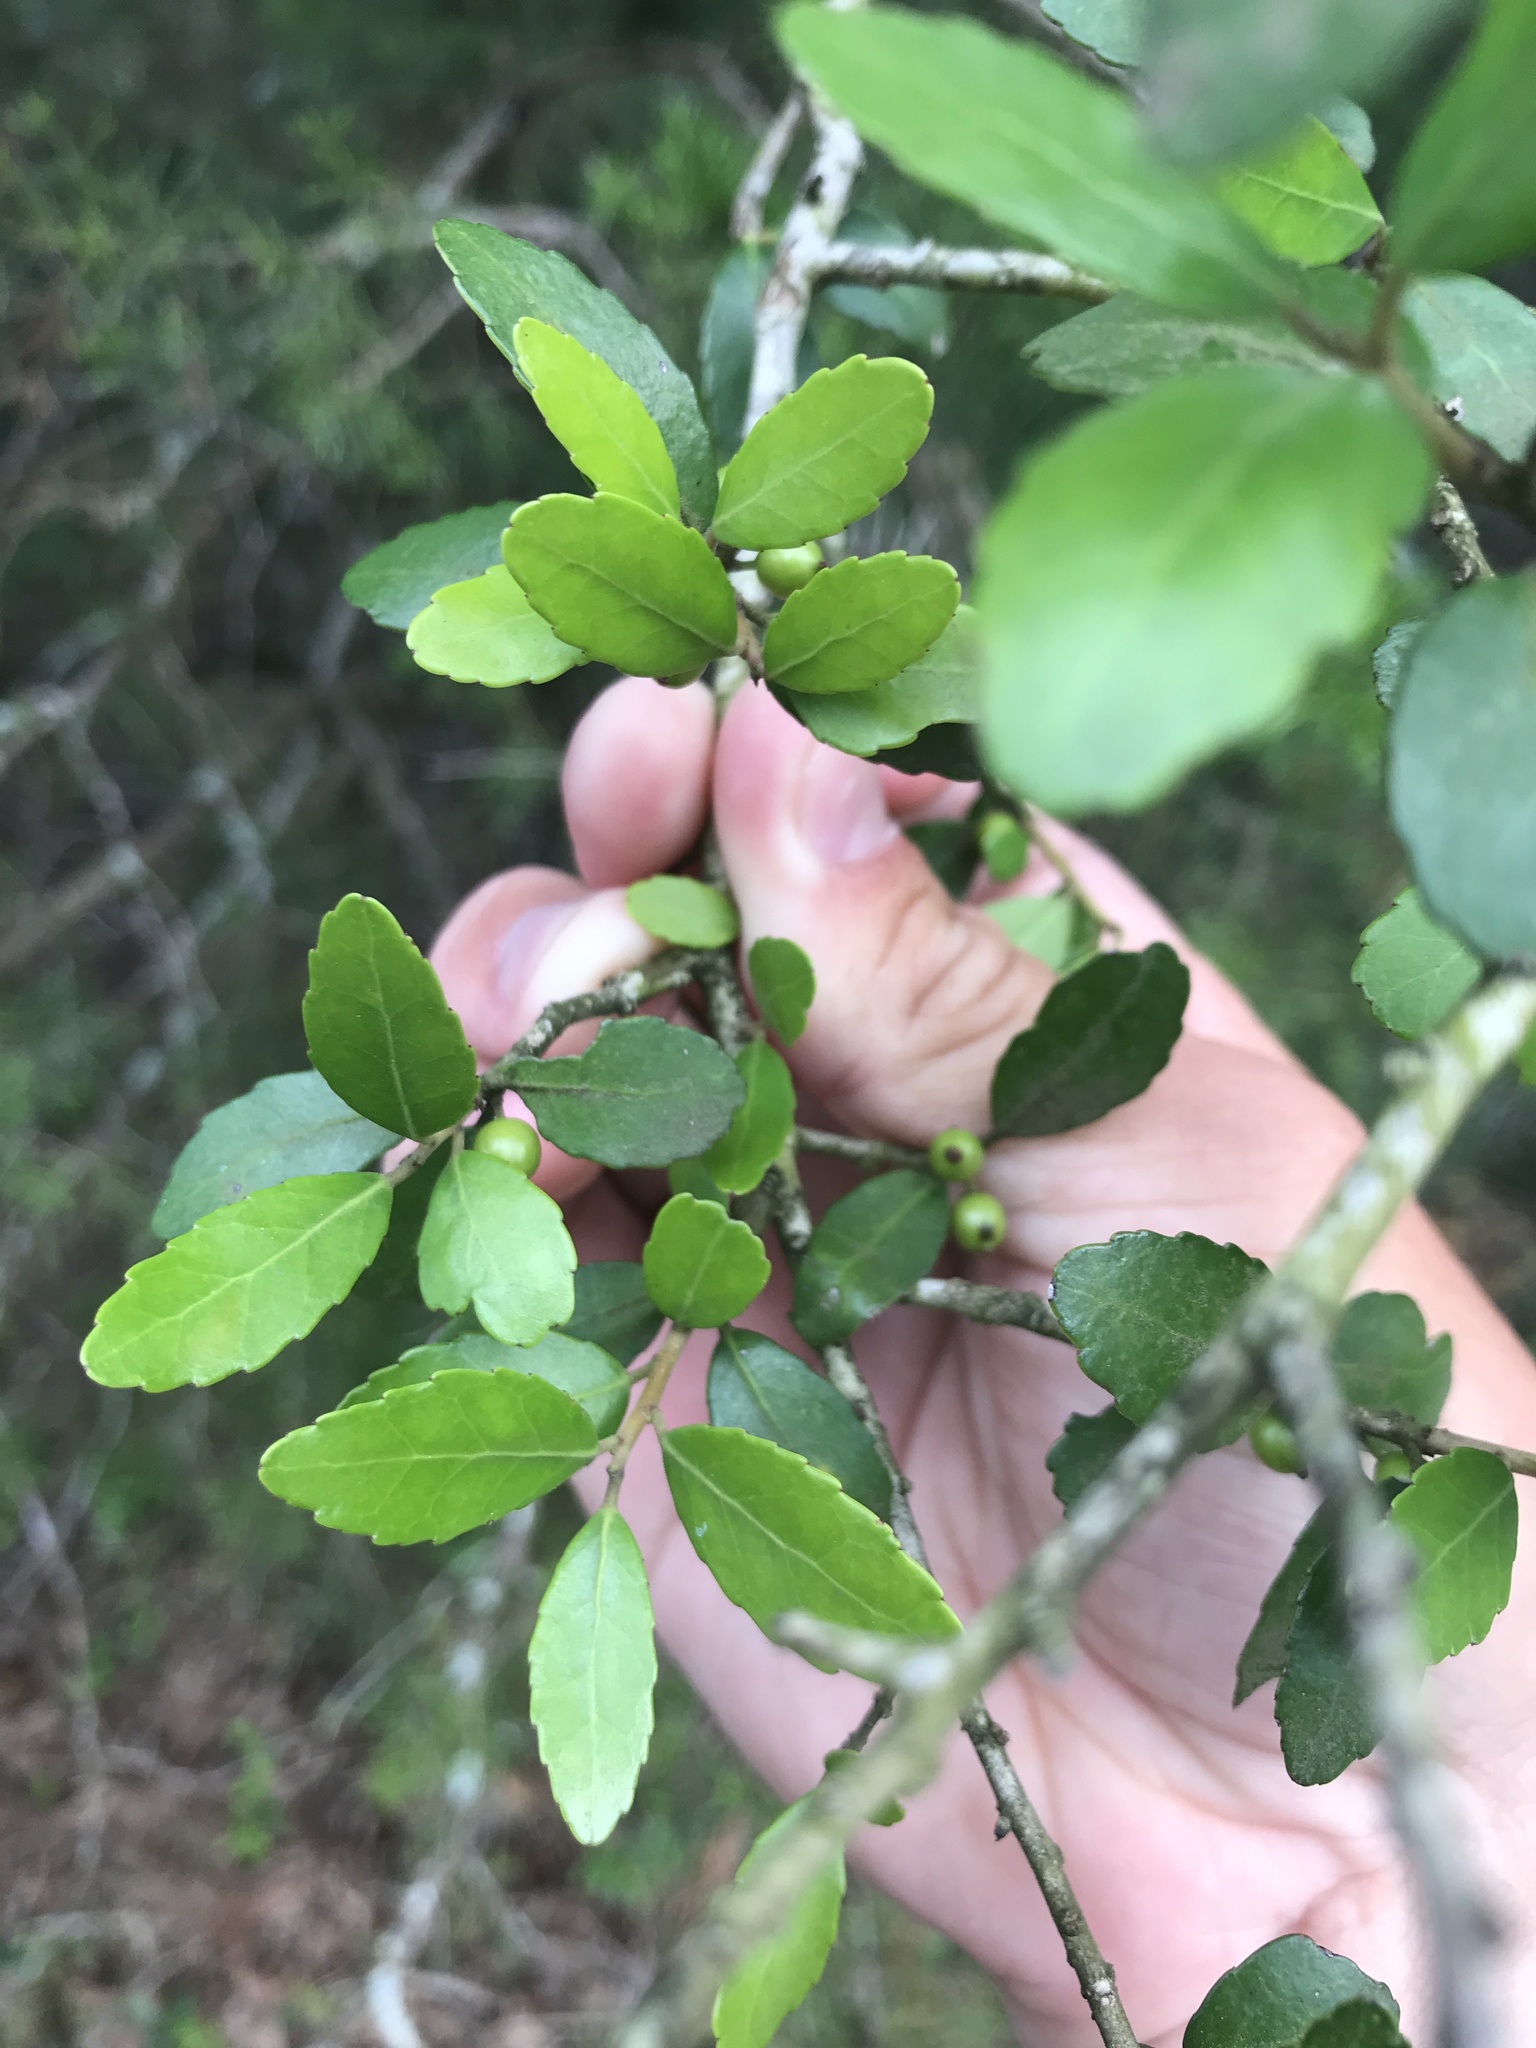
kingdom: Plantae
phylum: Tracheophyta
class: Magnoliopsida
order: Aquifoliales
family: Aquifoliaceae
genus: Ilex
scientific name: Ilex vomitoria
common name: Yaupon holly
